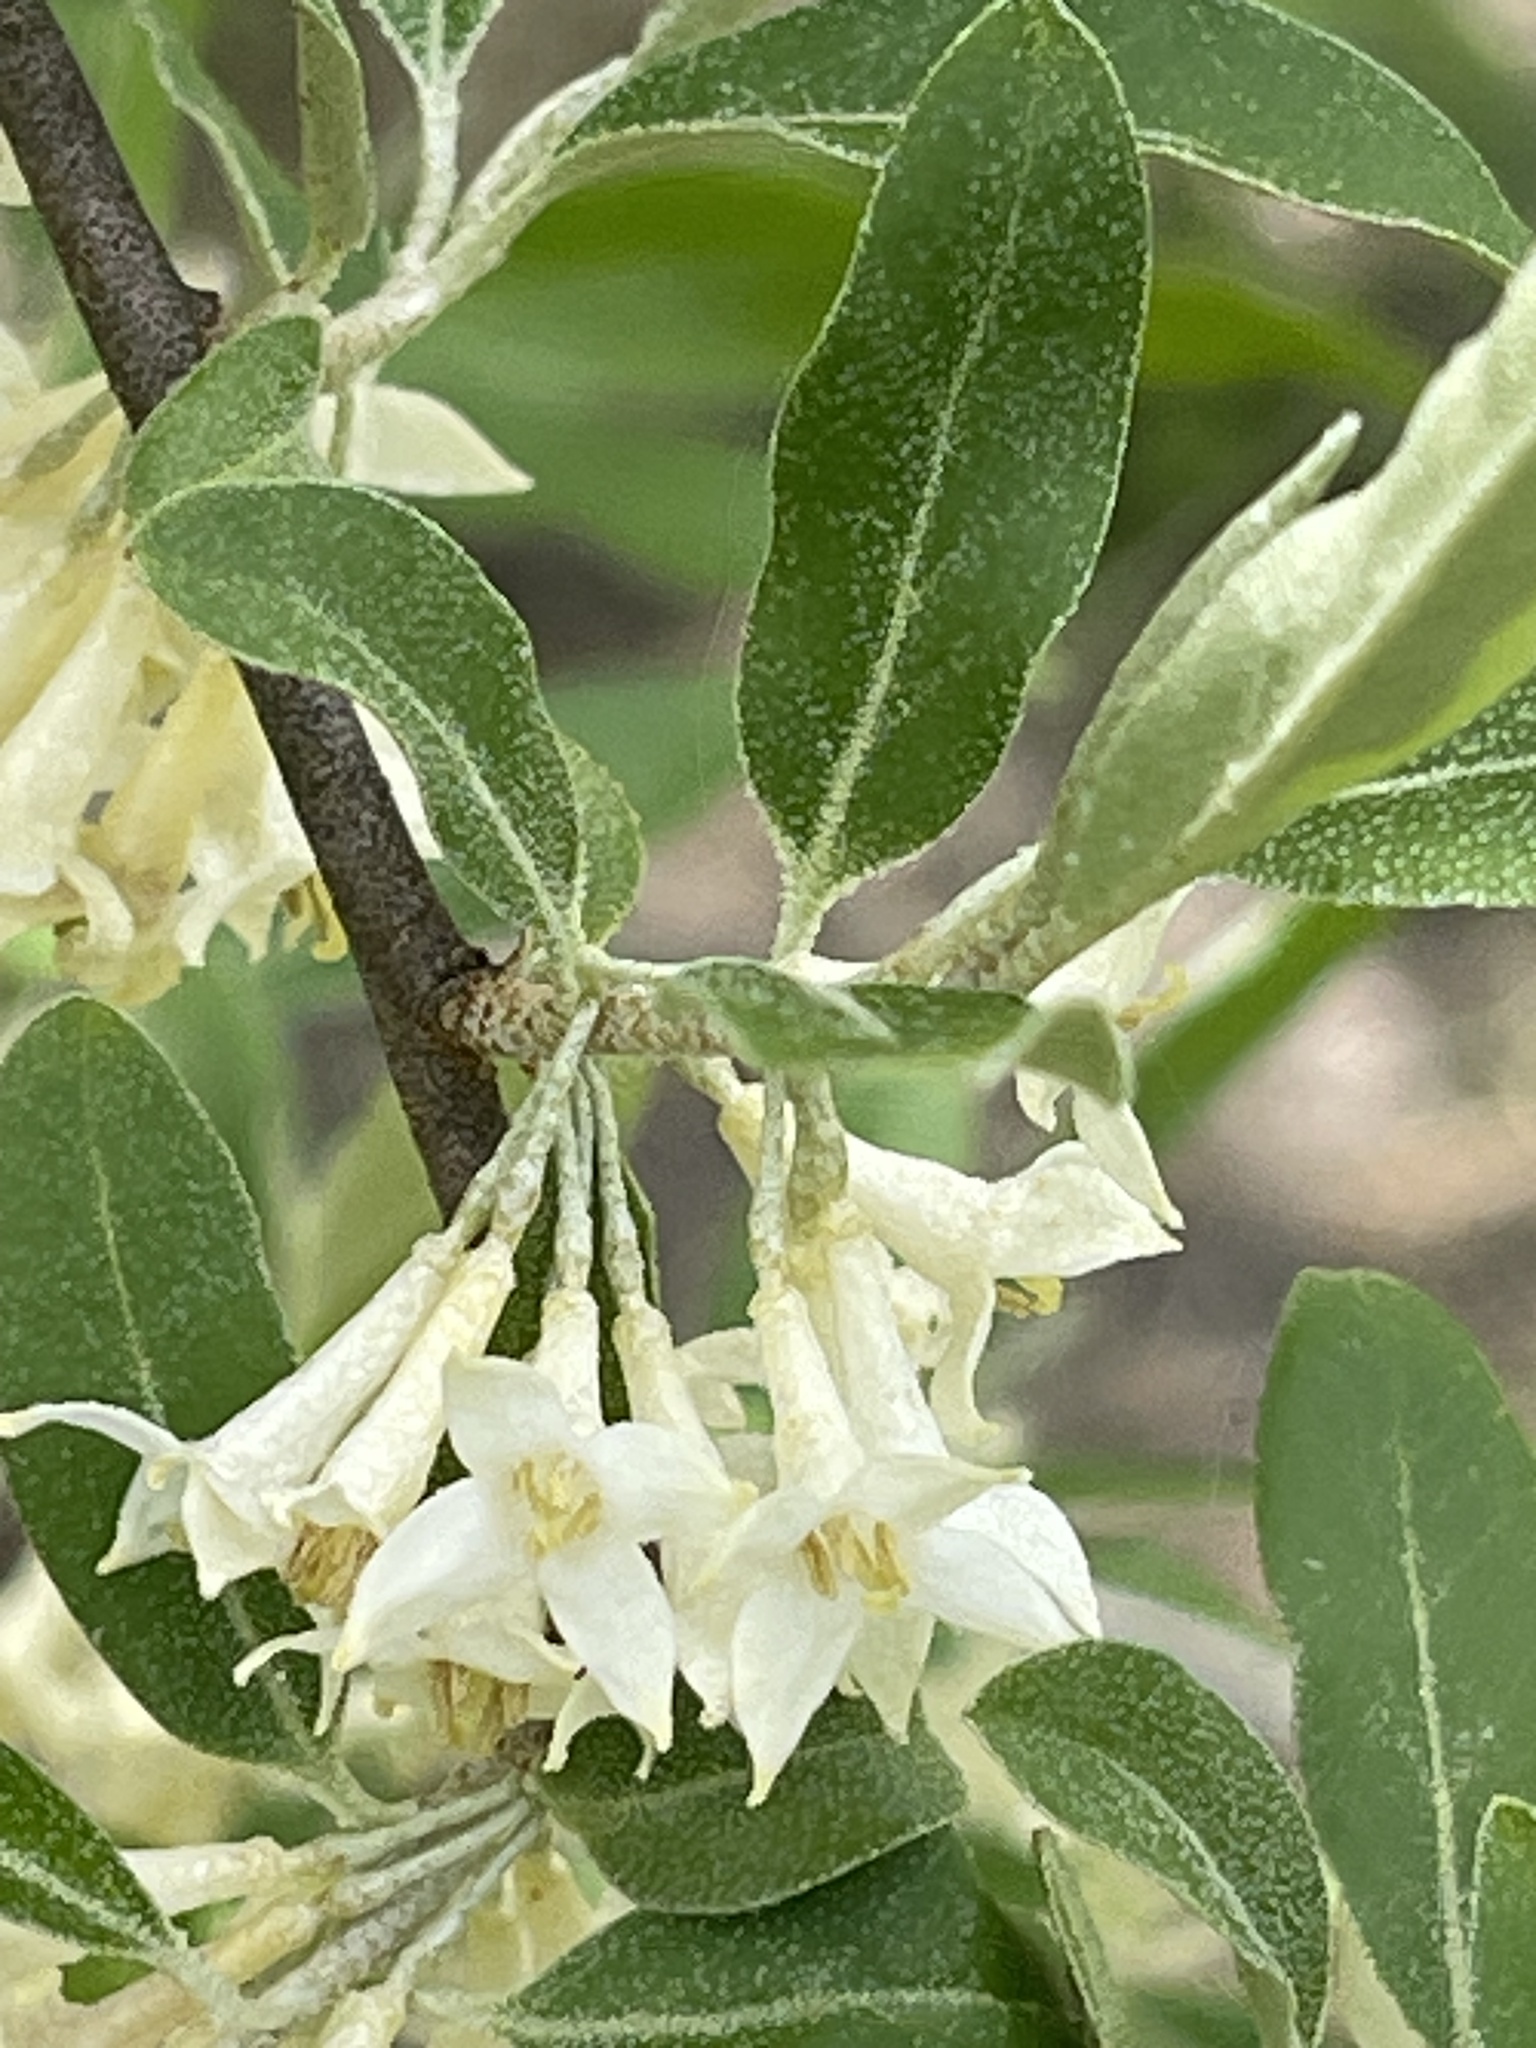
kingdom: Plantae
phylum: Tracheophyta
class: Magnoliopsida
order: Rosales
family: Elaeagnaceae
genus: Elaeagnus
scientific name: Elaeagnus umbellata
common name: Autumn olive
